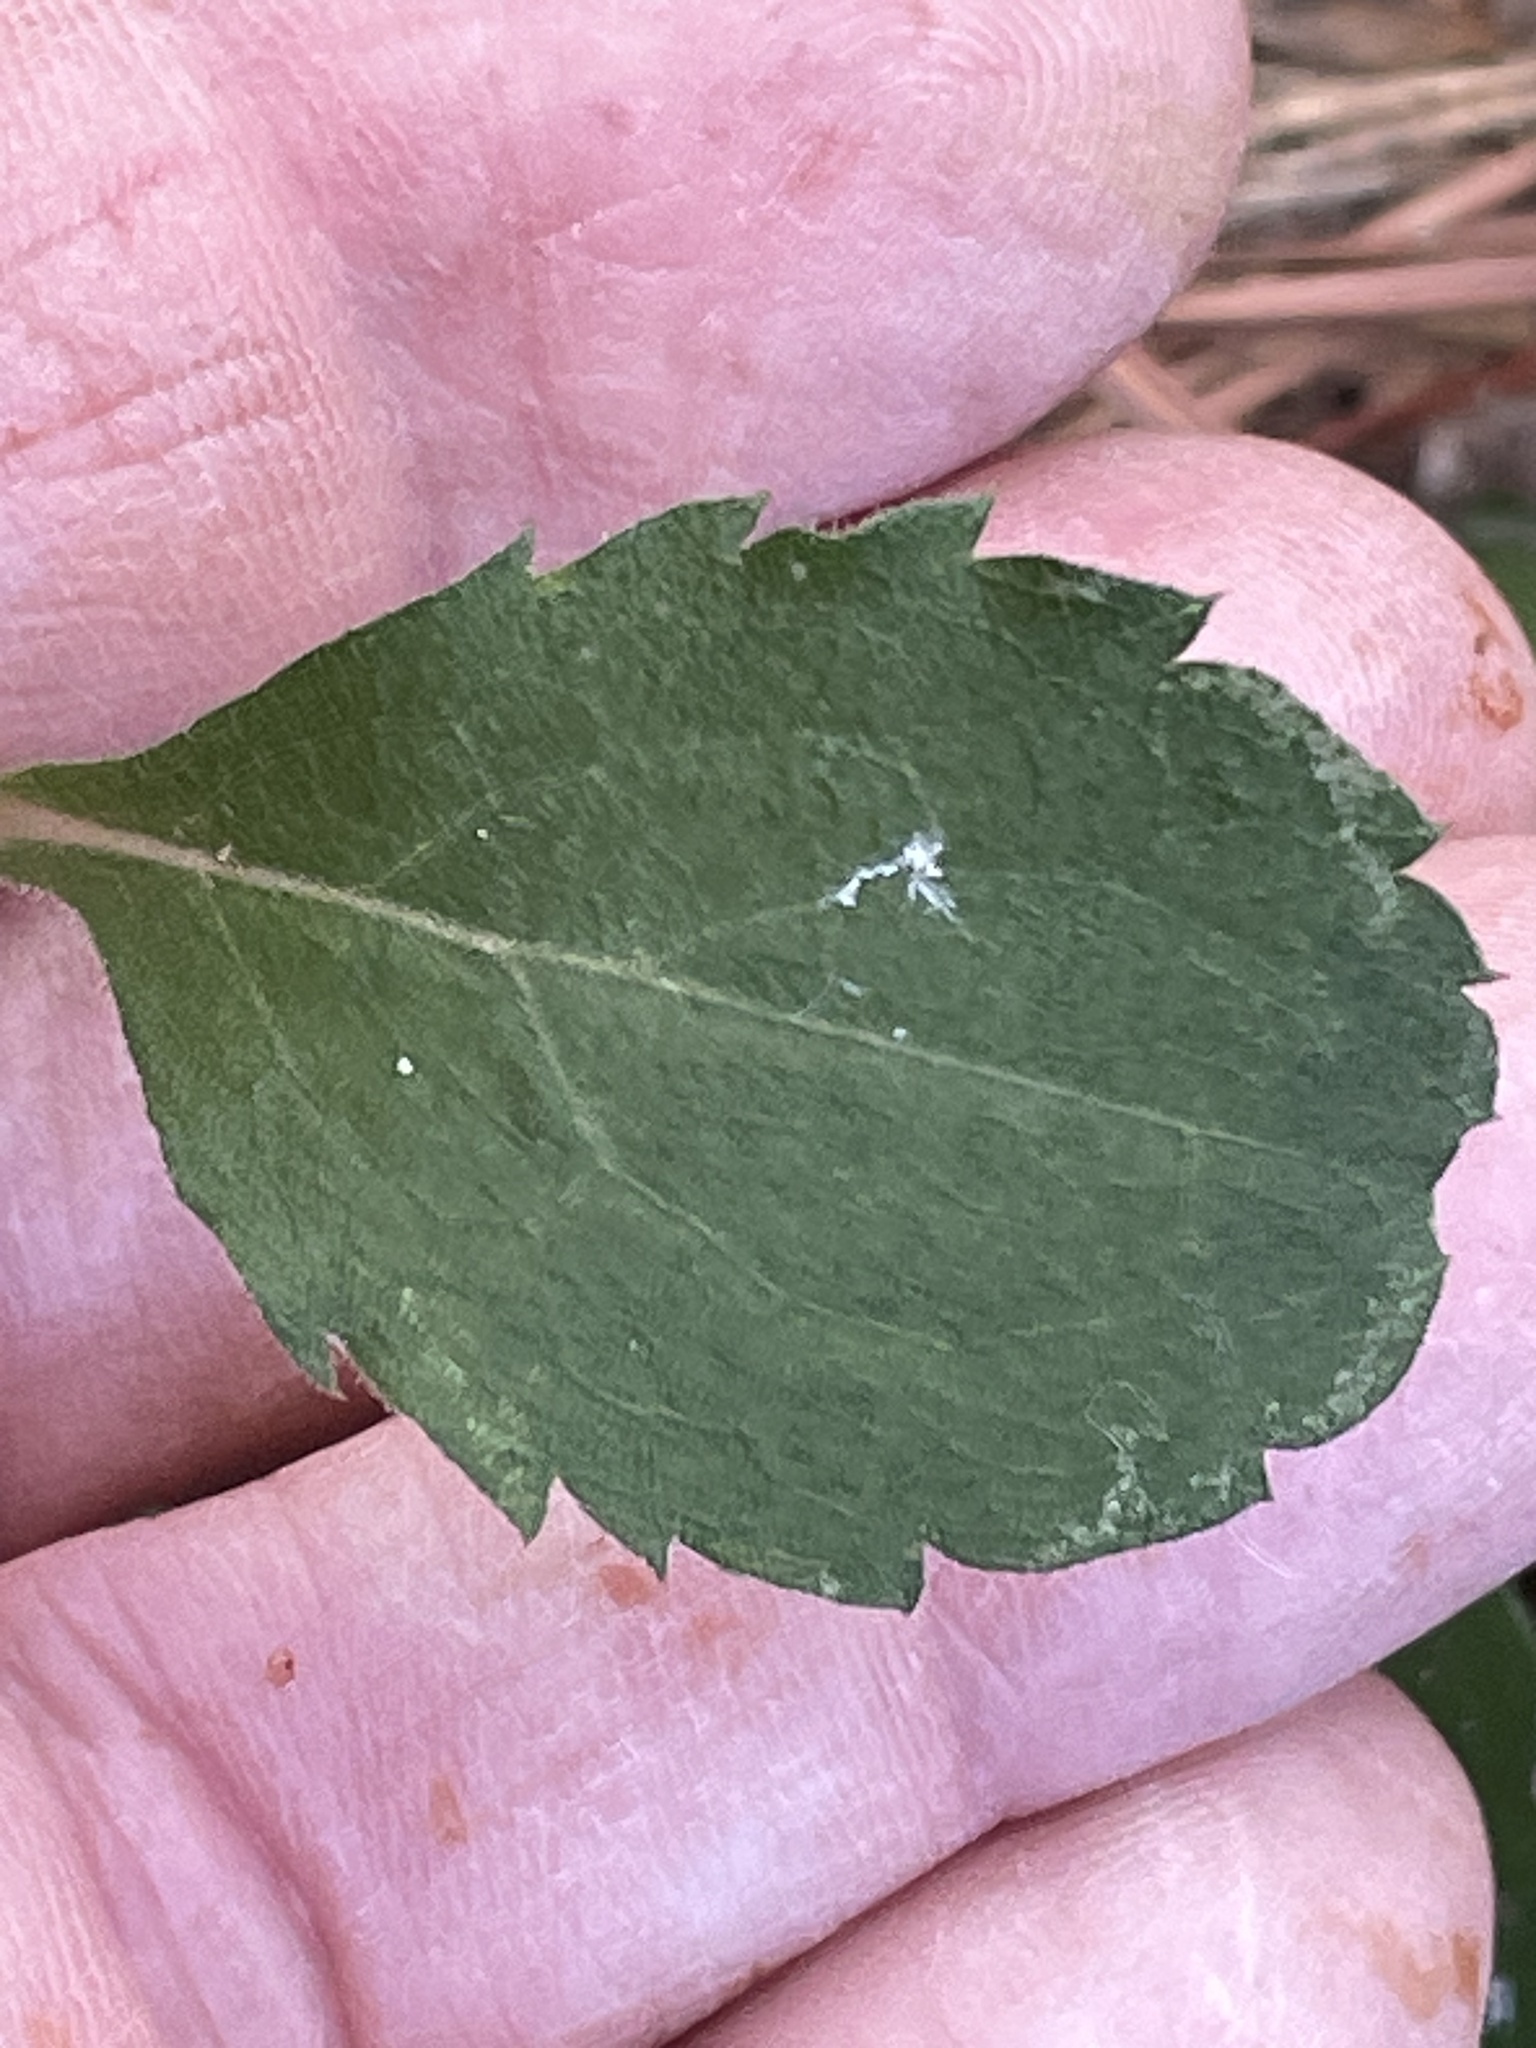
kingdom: Plantae
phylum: Tracheophyta
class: Magnoliopsida
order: Asterales
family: Asteraceae
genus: Eurybia
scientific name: Eurybia mirabilis
